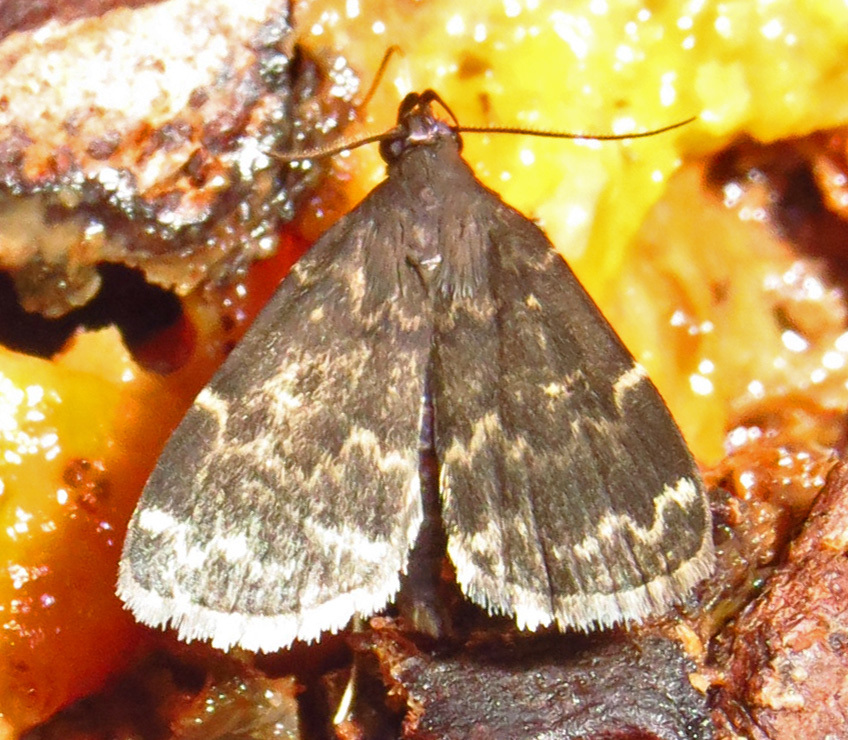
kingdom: Animalia
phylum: Arthropoda
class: Insecta
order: Lepidoptera
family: Erebidae
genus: Idia
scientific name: Idia lubricalis
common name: Twin-striped tabby
